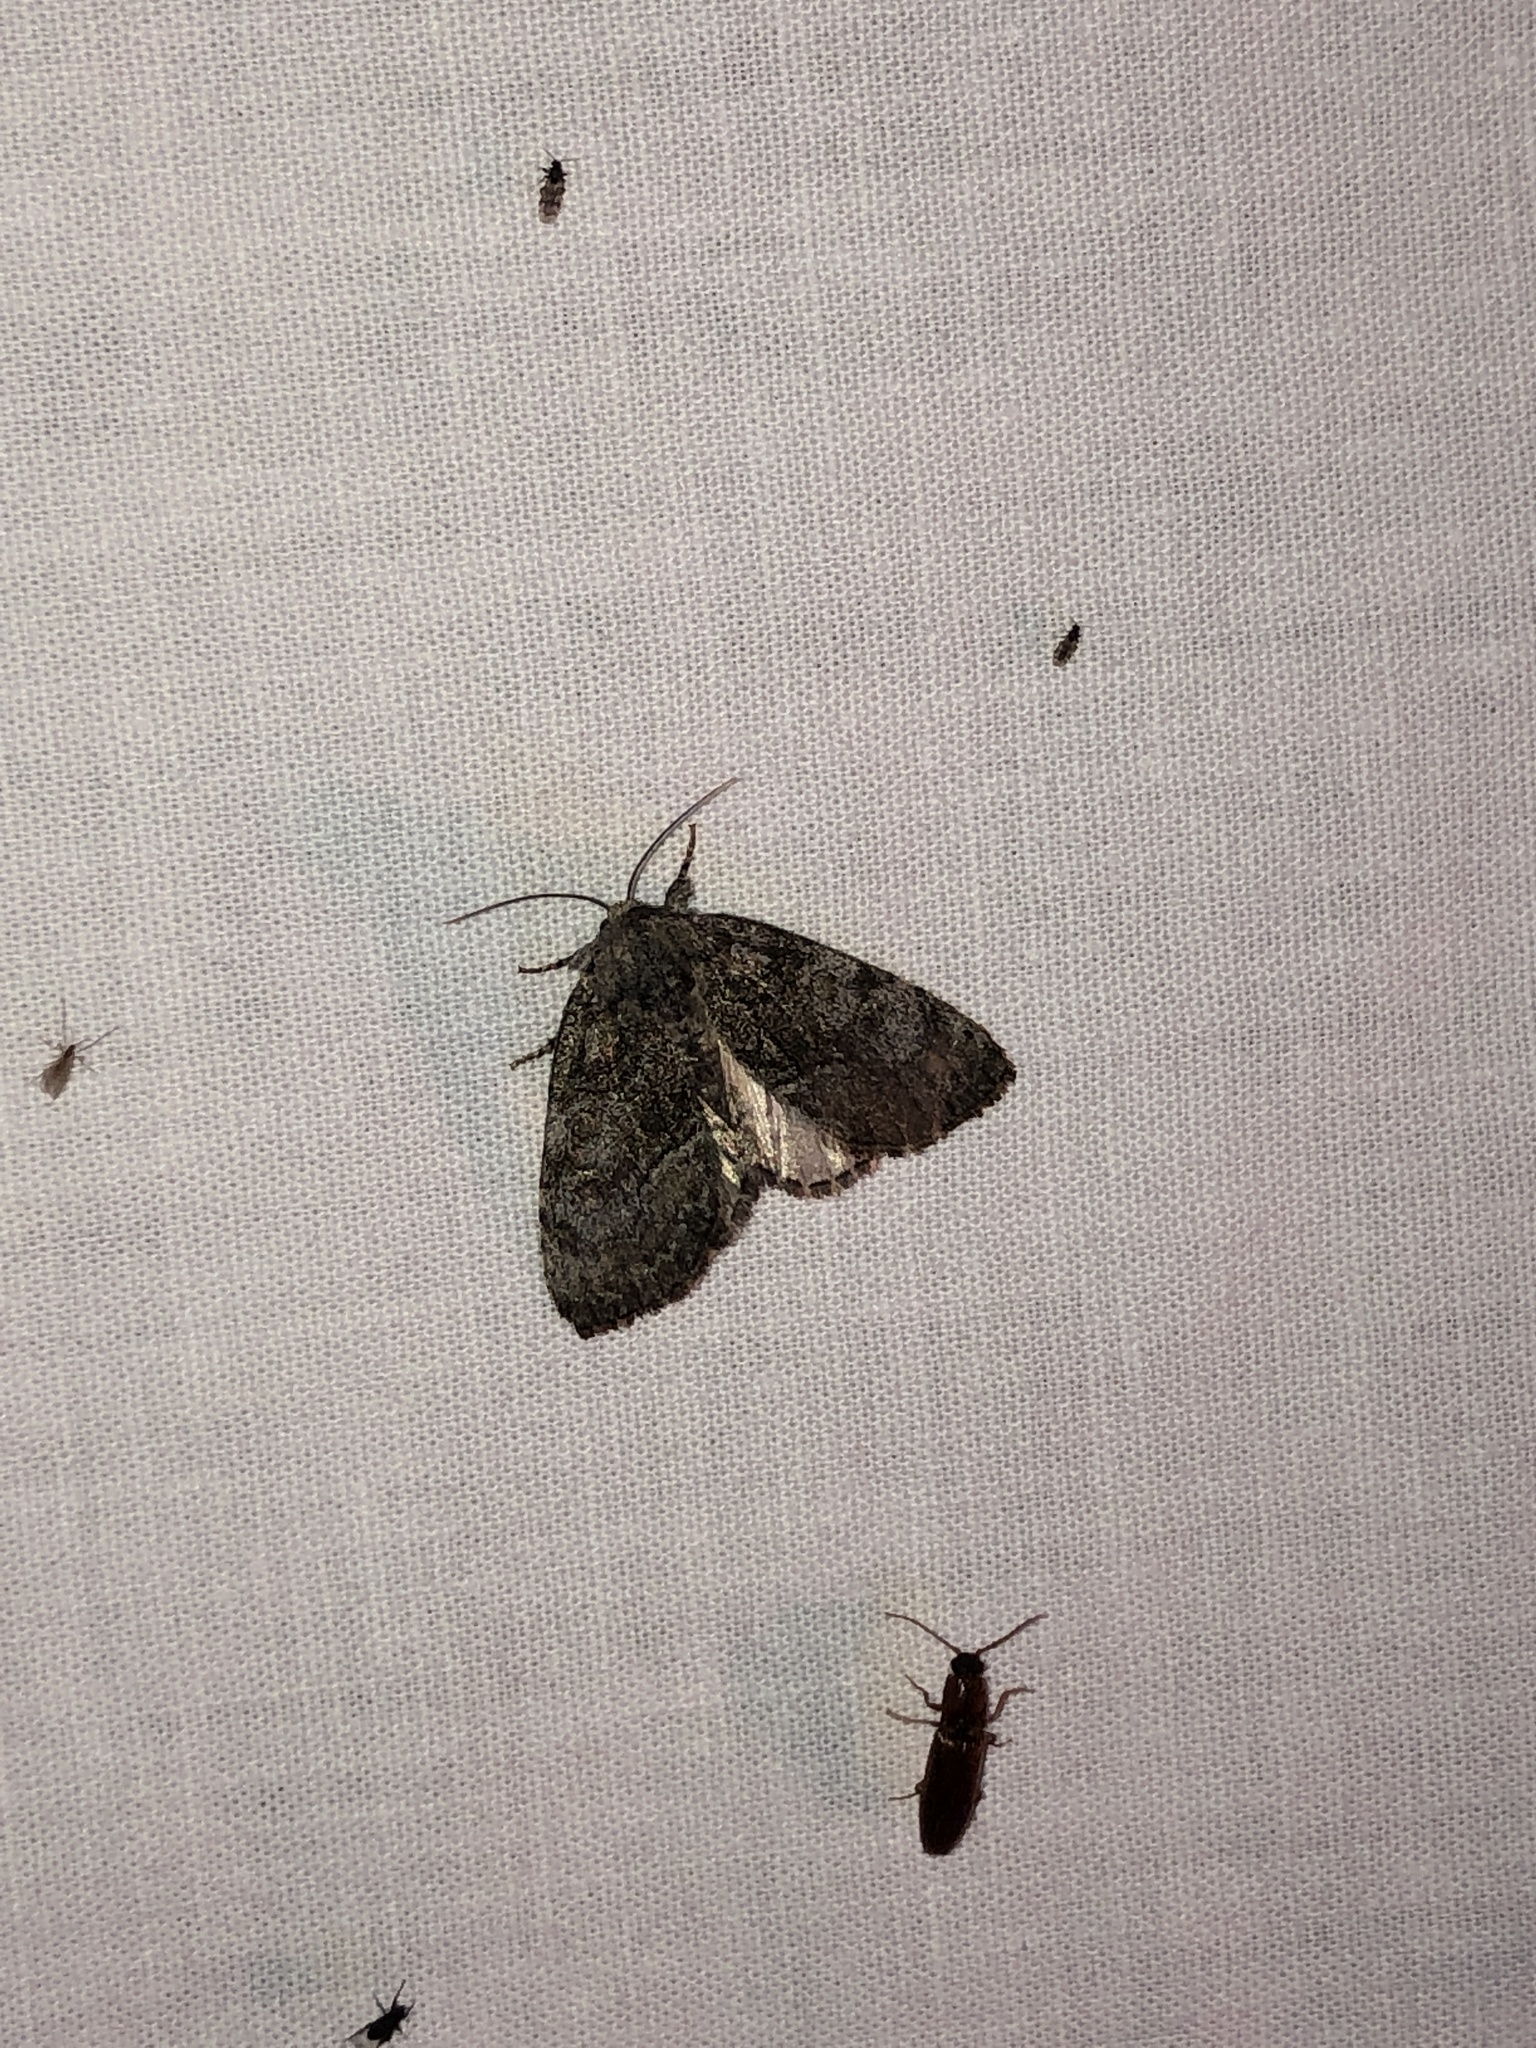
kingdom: Animalia
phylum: Arthropoda
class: Insecta
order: Lepidoptera
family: Noctuidae
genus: Raphia
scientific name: Raphia frater
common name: Brother
